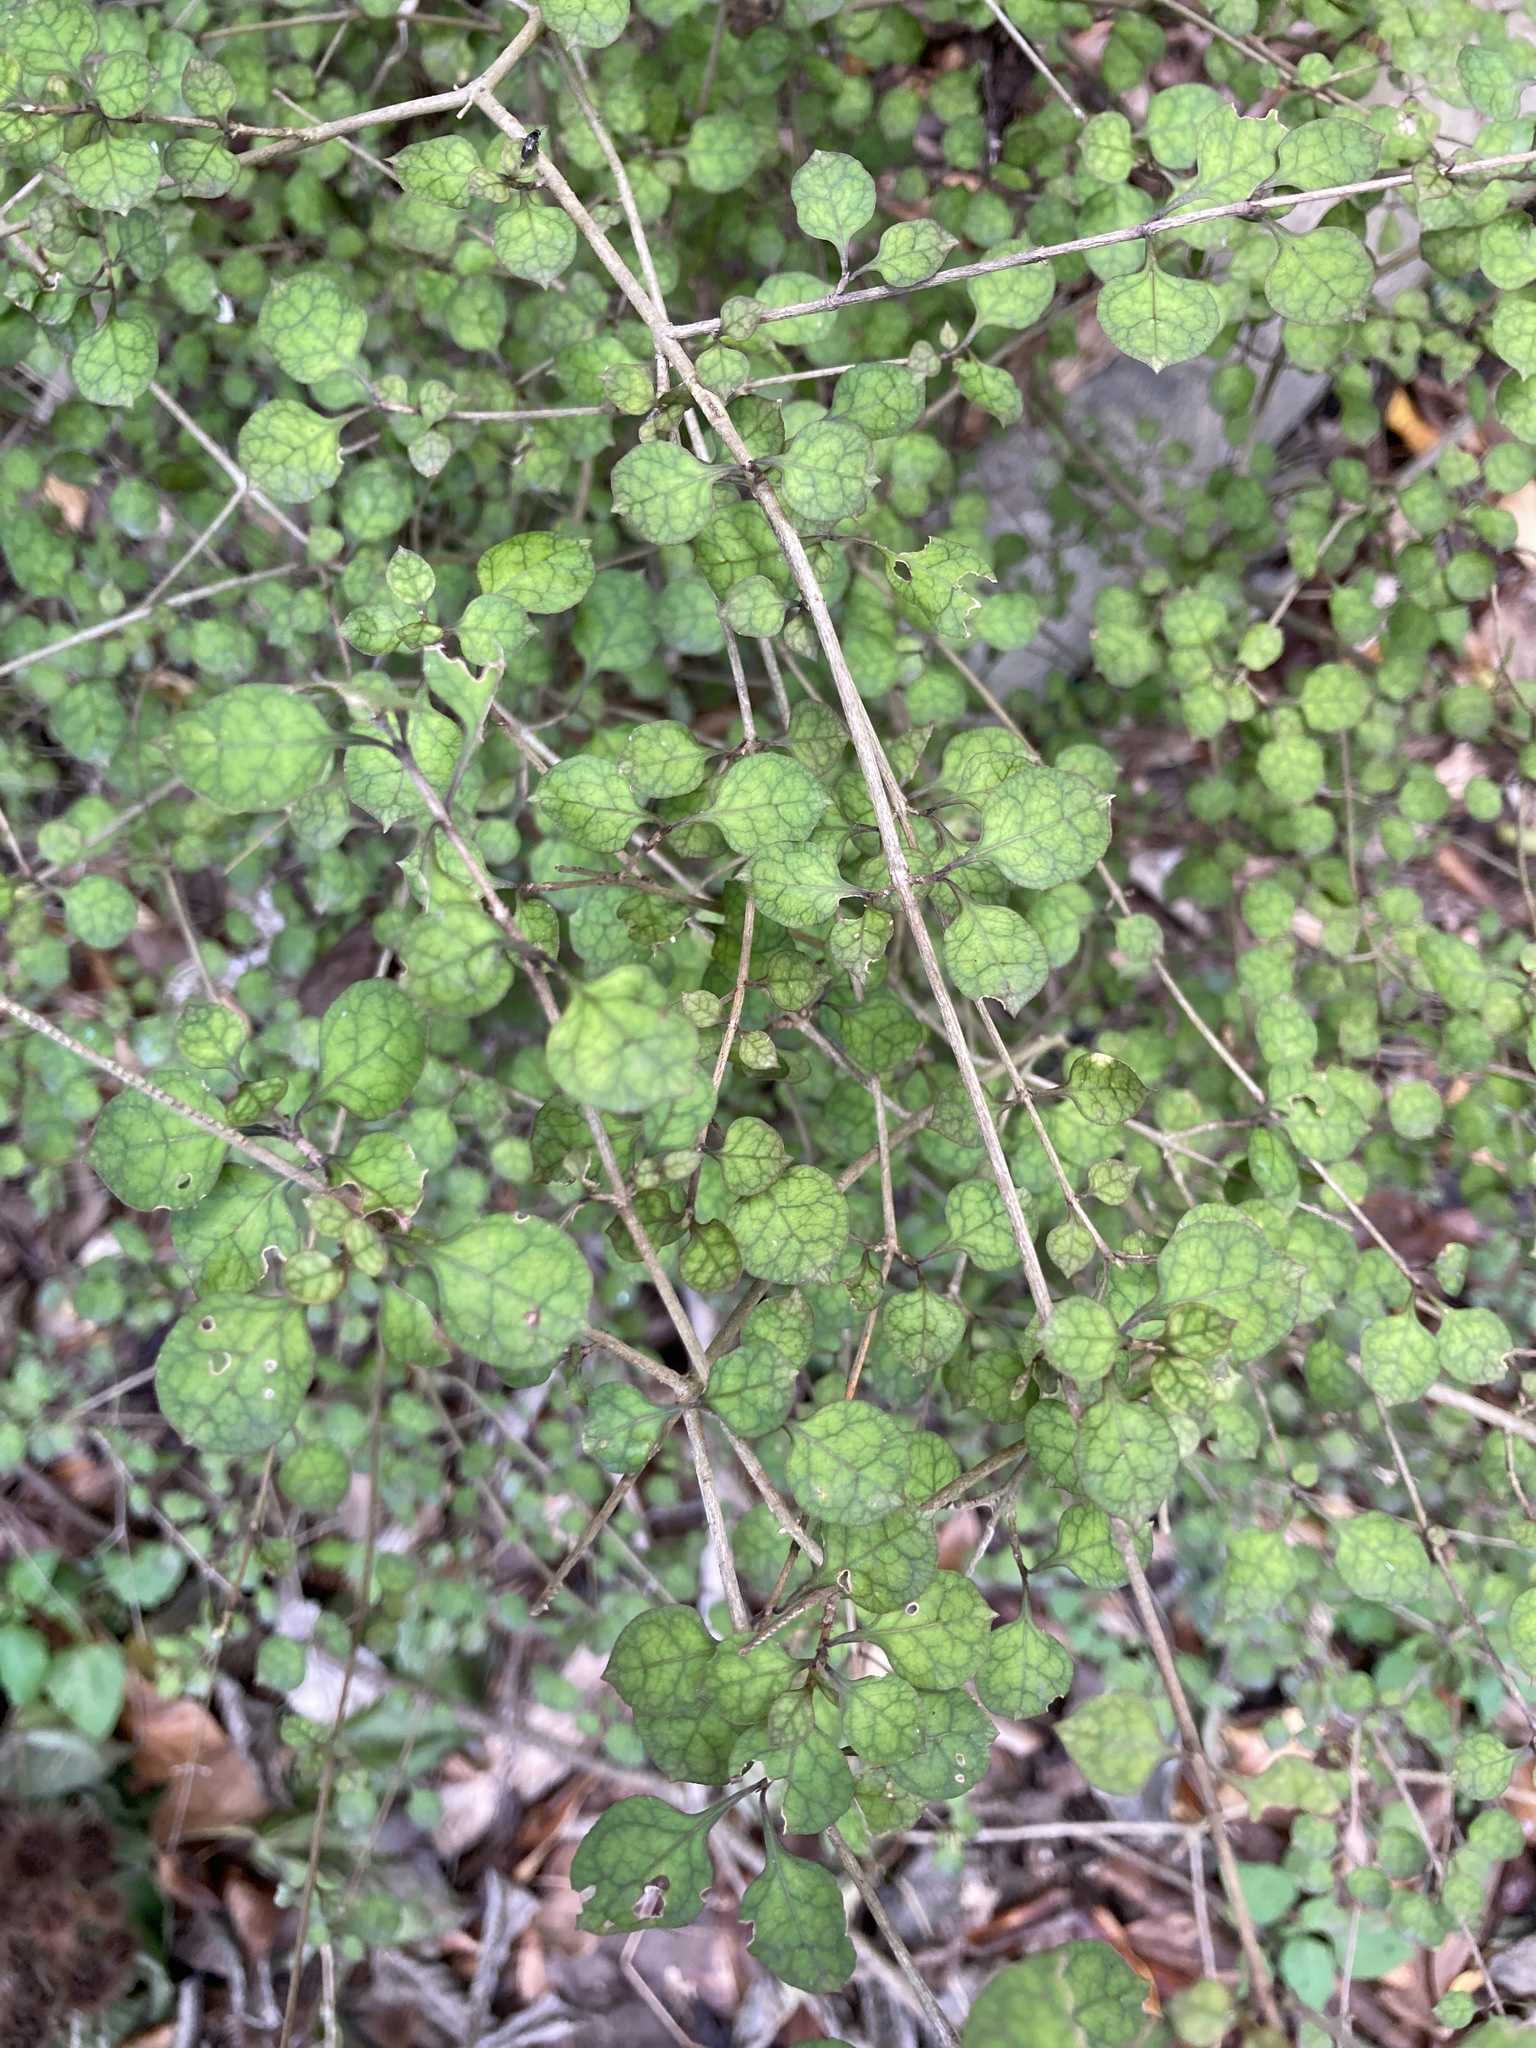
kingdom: Plantae
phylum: Tracheophyta
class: Magnoliopsida
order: Gentianales
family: Rubiaceae
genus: Coprosma
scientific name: Coprosma areolata
